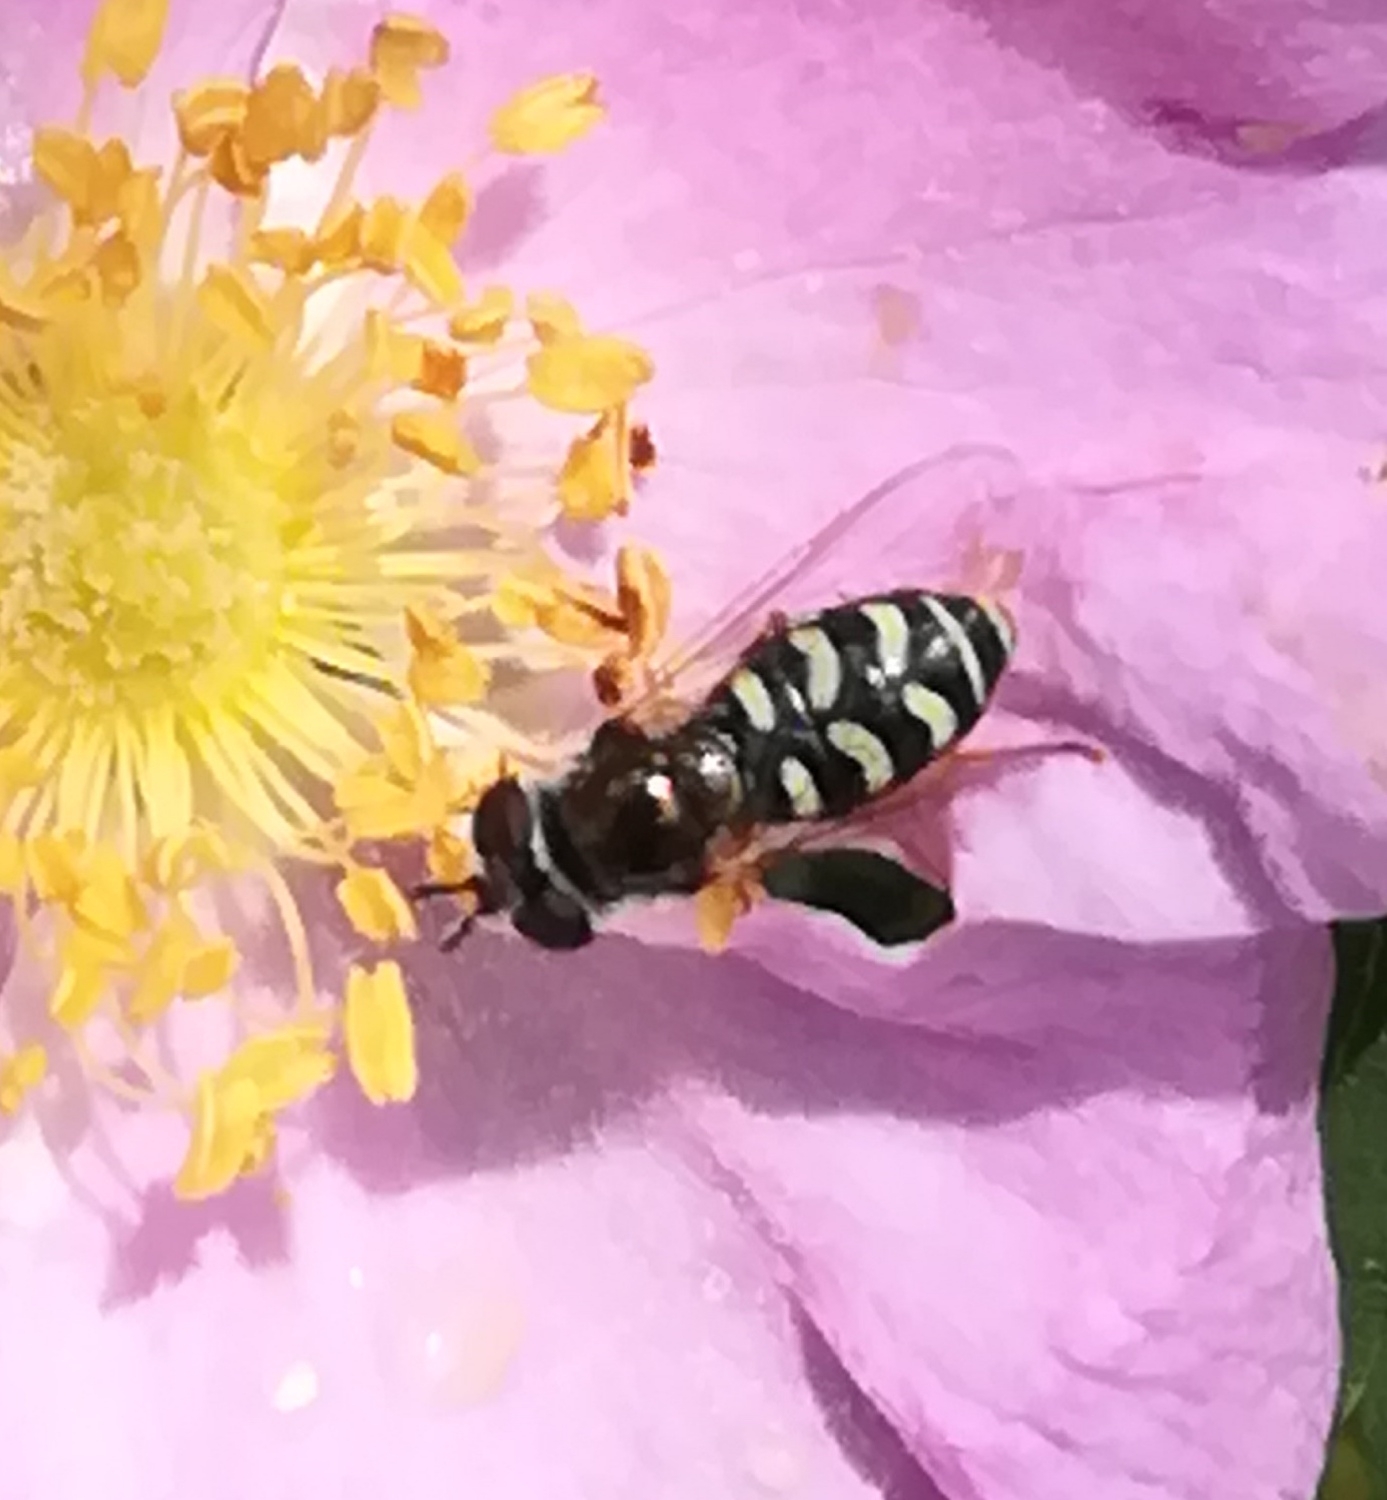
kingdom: Animalia
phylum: Arthropoda
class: Insecta
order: Diptera
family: Syrphidae
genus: Eupeodes
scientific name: Eupeodes volucris
